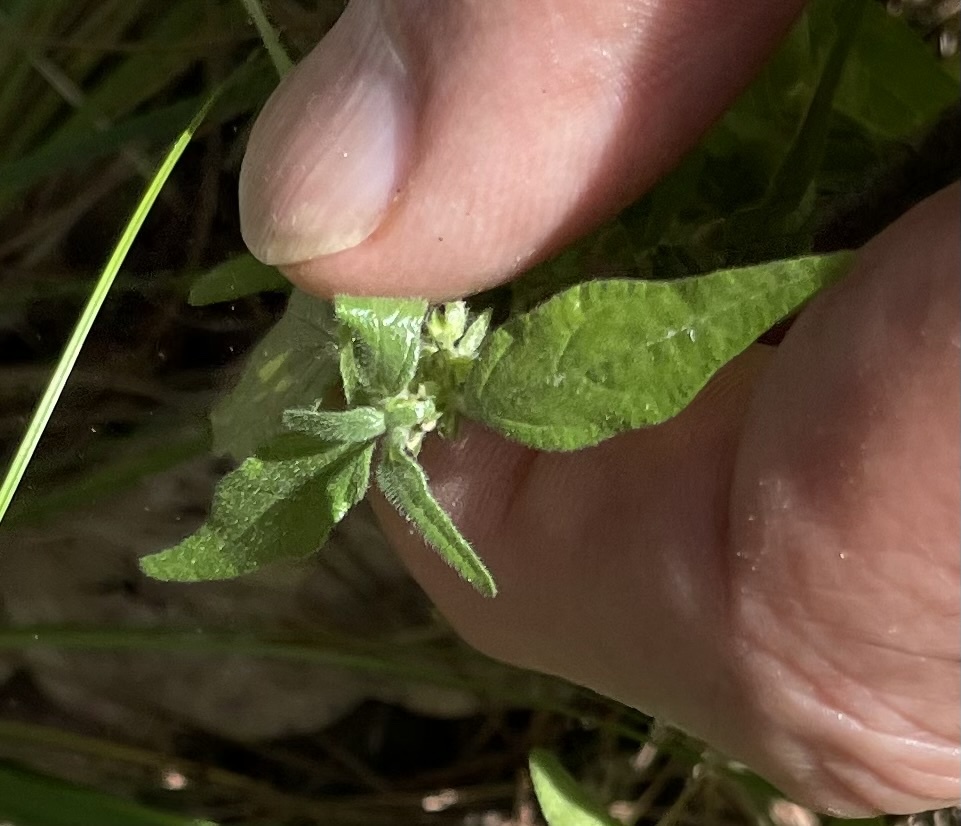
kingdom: Plantae
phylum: Tracheophyta
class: Magnoliopsida
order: Rosales
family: Urticaceae
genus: Parietaria
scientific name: Parietaria pensylvanica
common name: Pennsylvania pellitory
